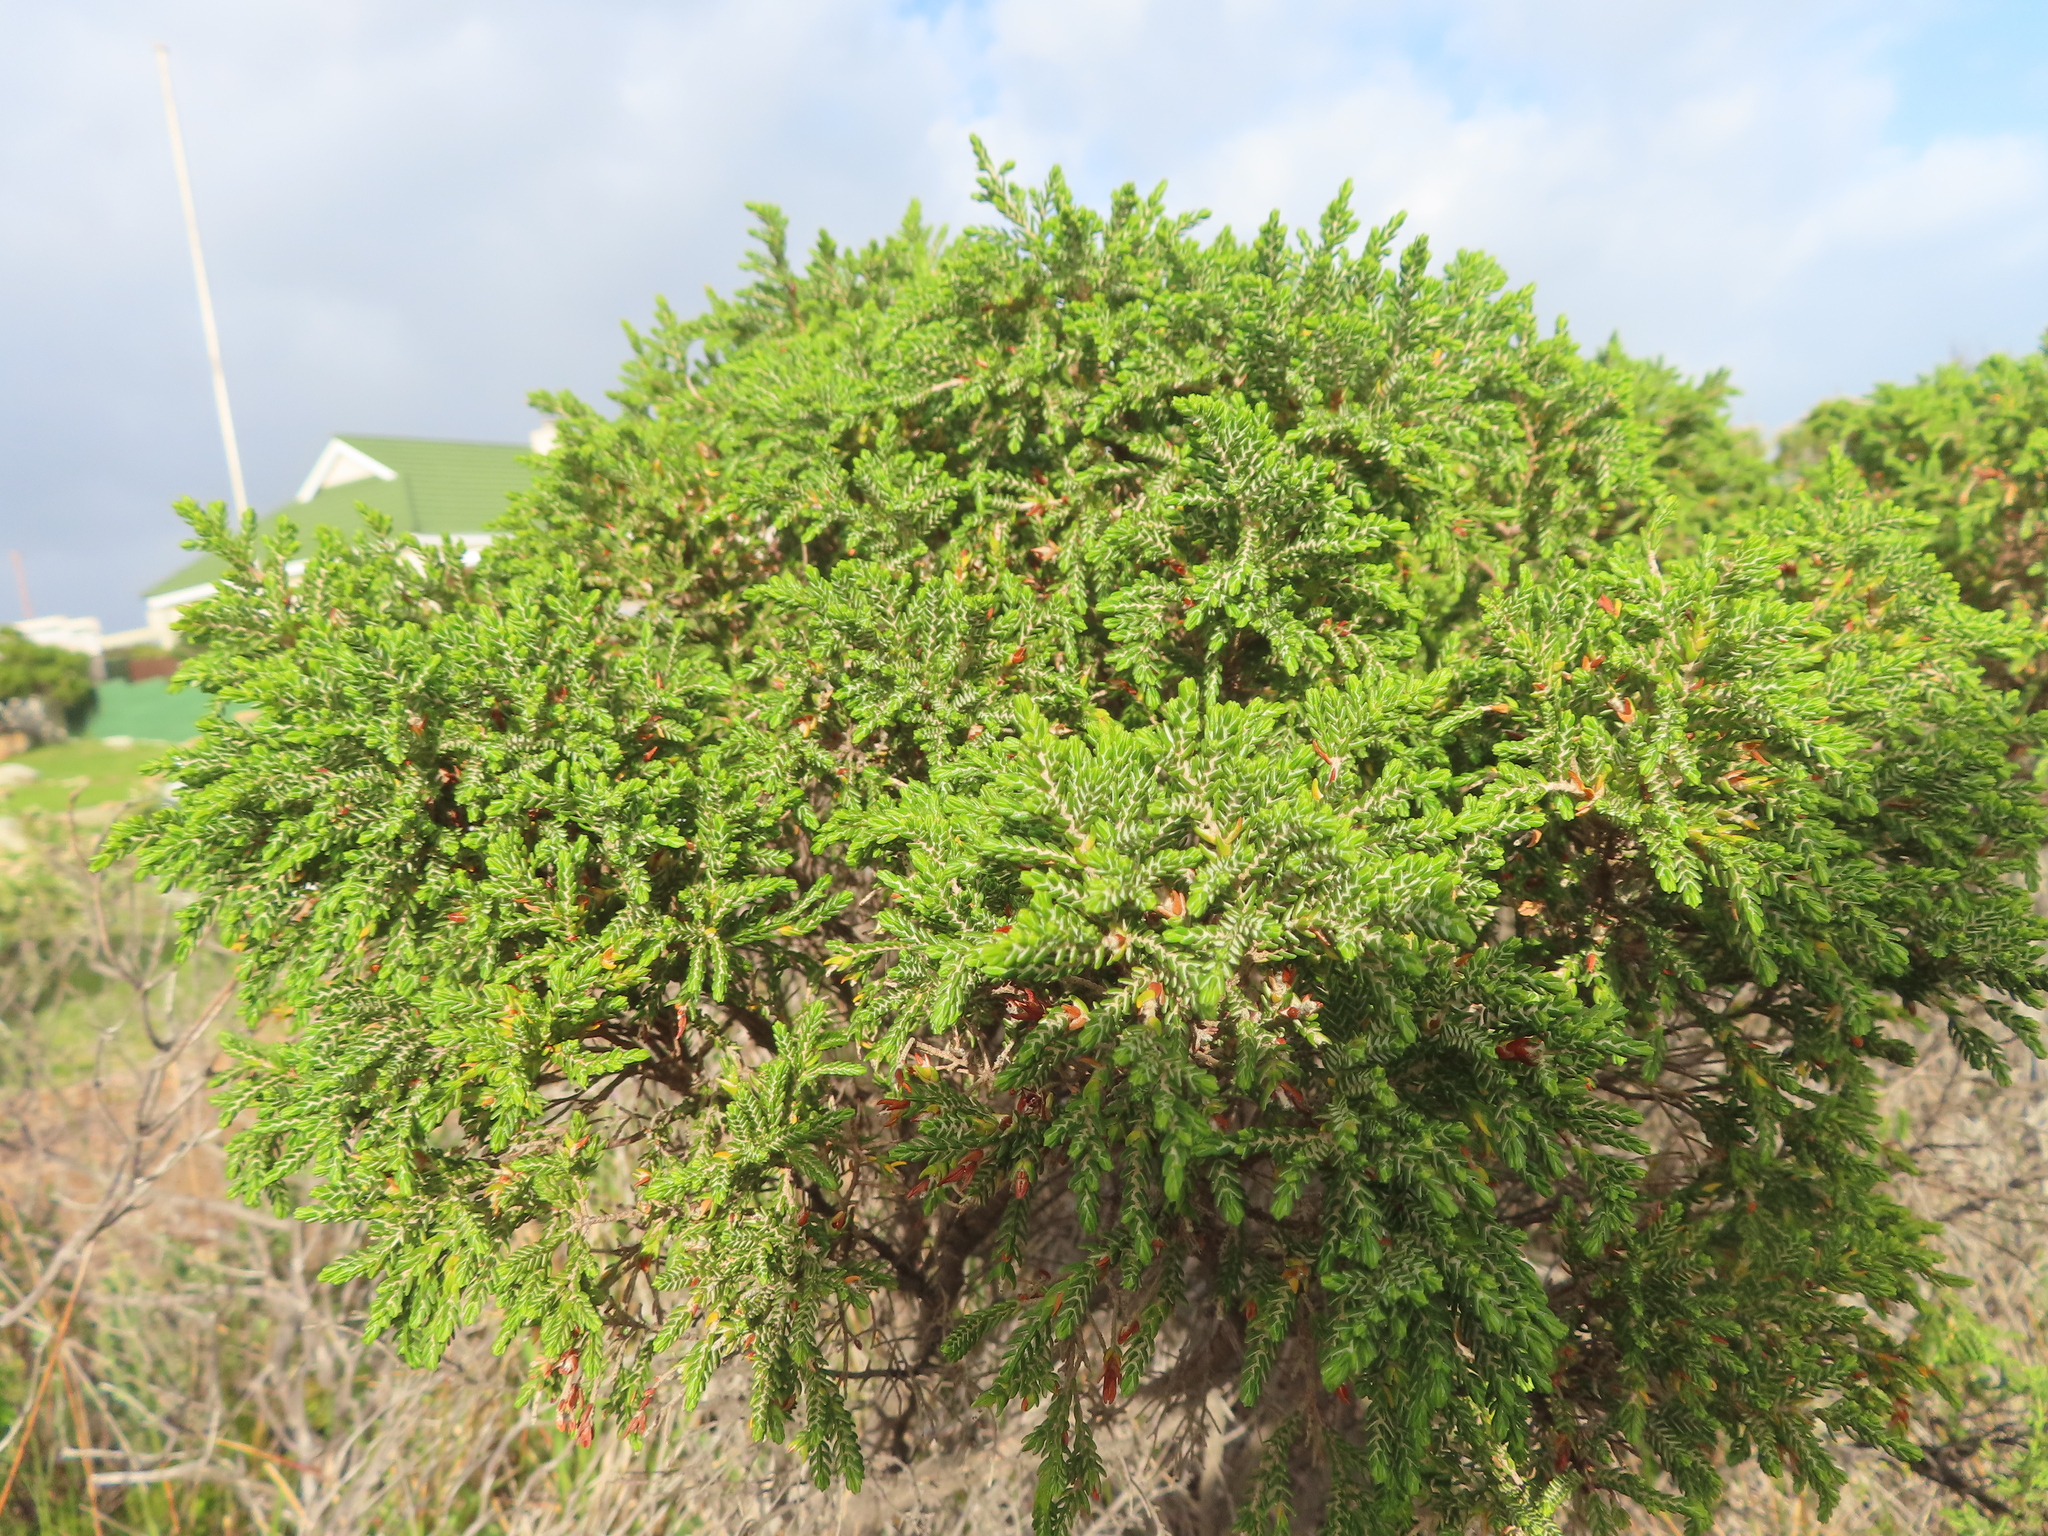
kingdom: Plantae
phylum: Tracheophyta
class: Magnoliopsida
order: Malvales
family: Thymelaeaceae
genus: Passerina
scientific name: Passerina rigida
